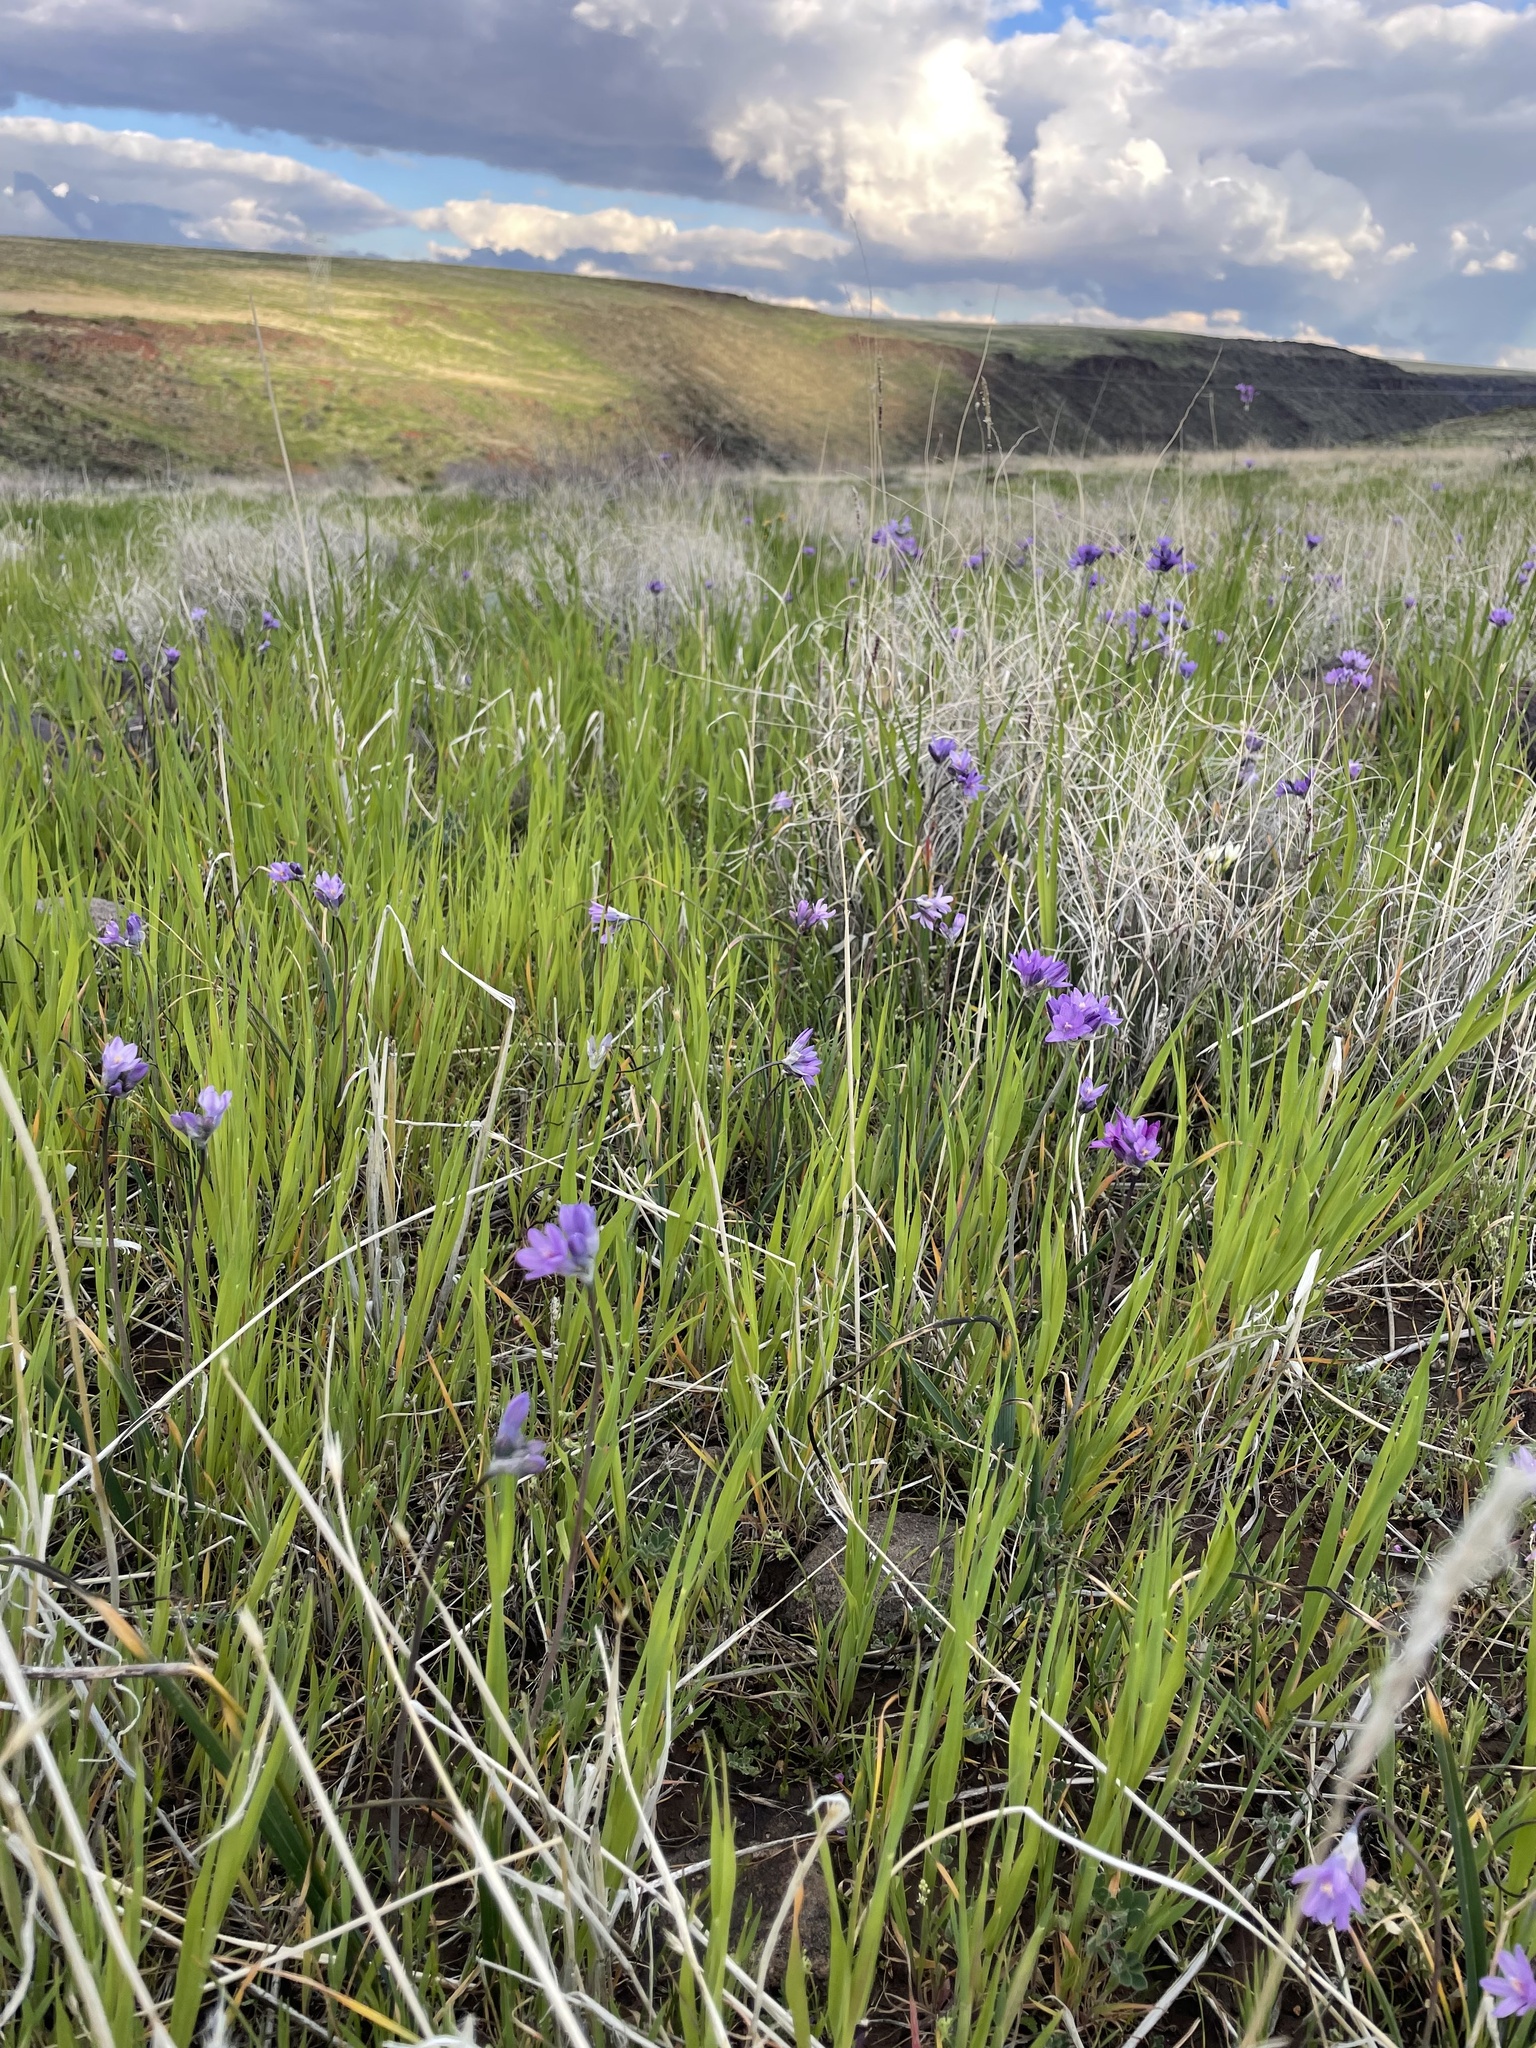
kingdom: Plantae
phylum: Tracheophyta
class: Liliopsida
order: Asparagales
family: Asparagaceae
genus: Dipterostemon
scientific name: Dipterostemon capitatus
